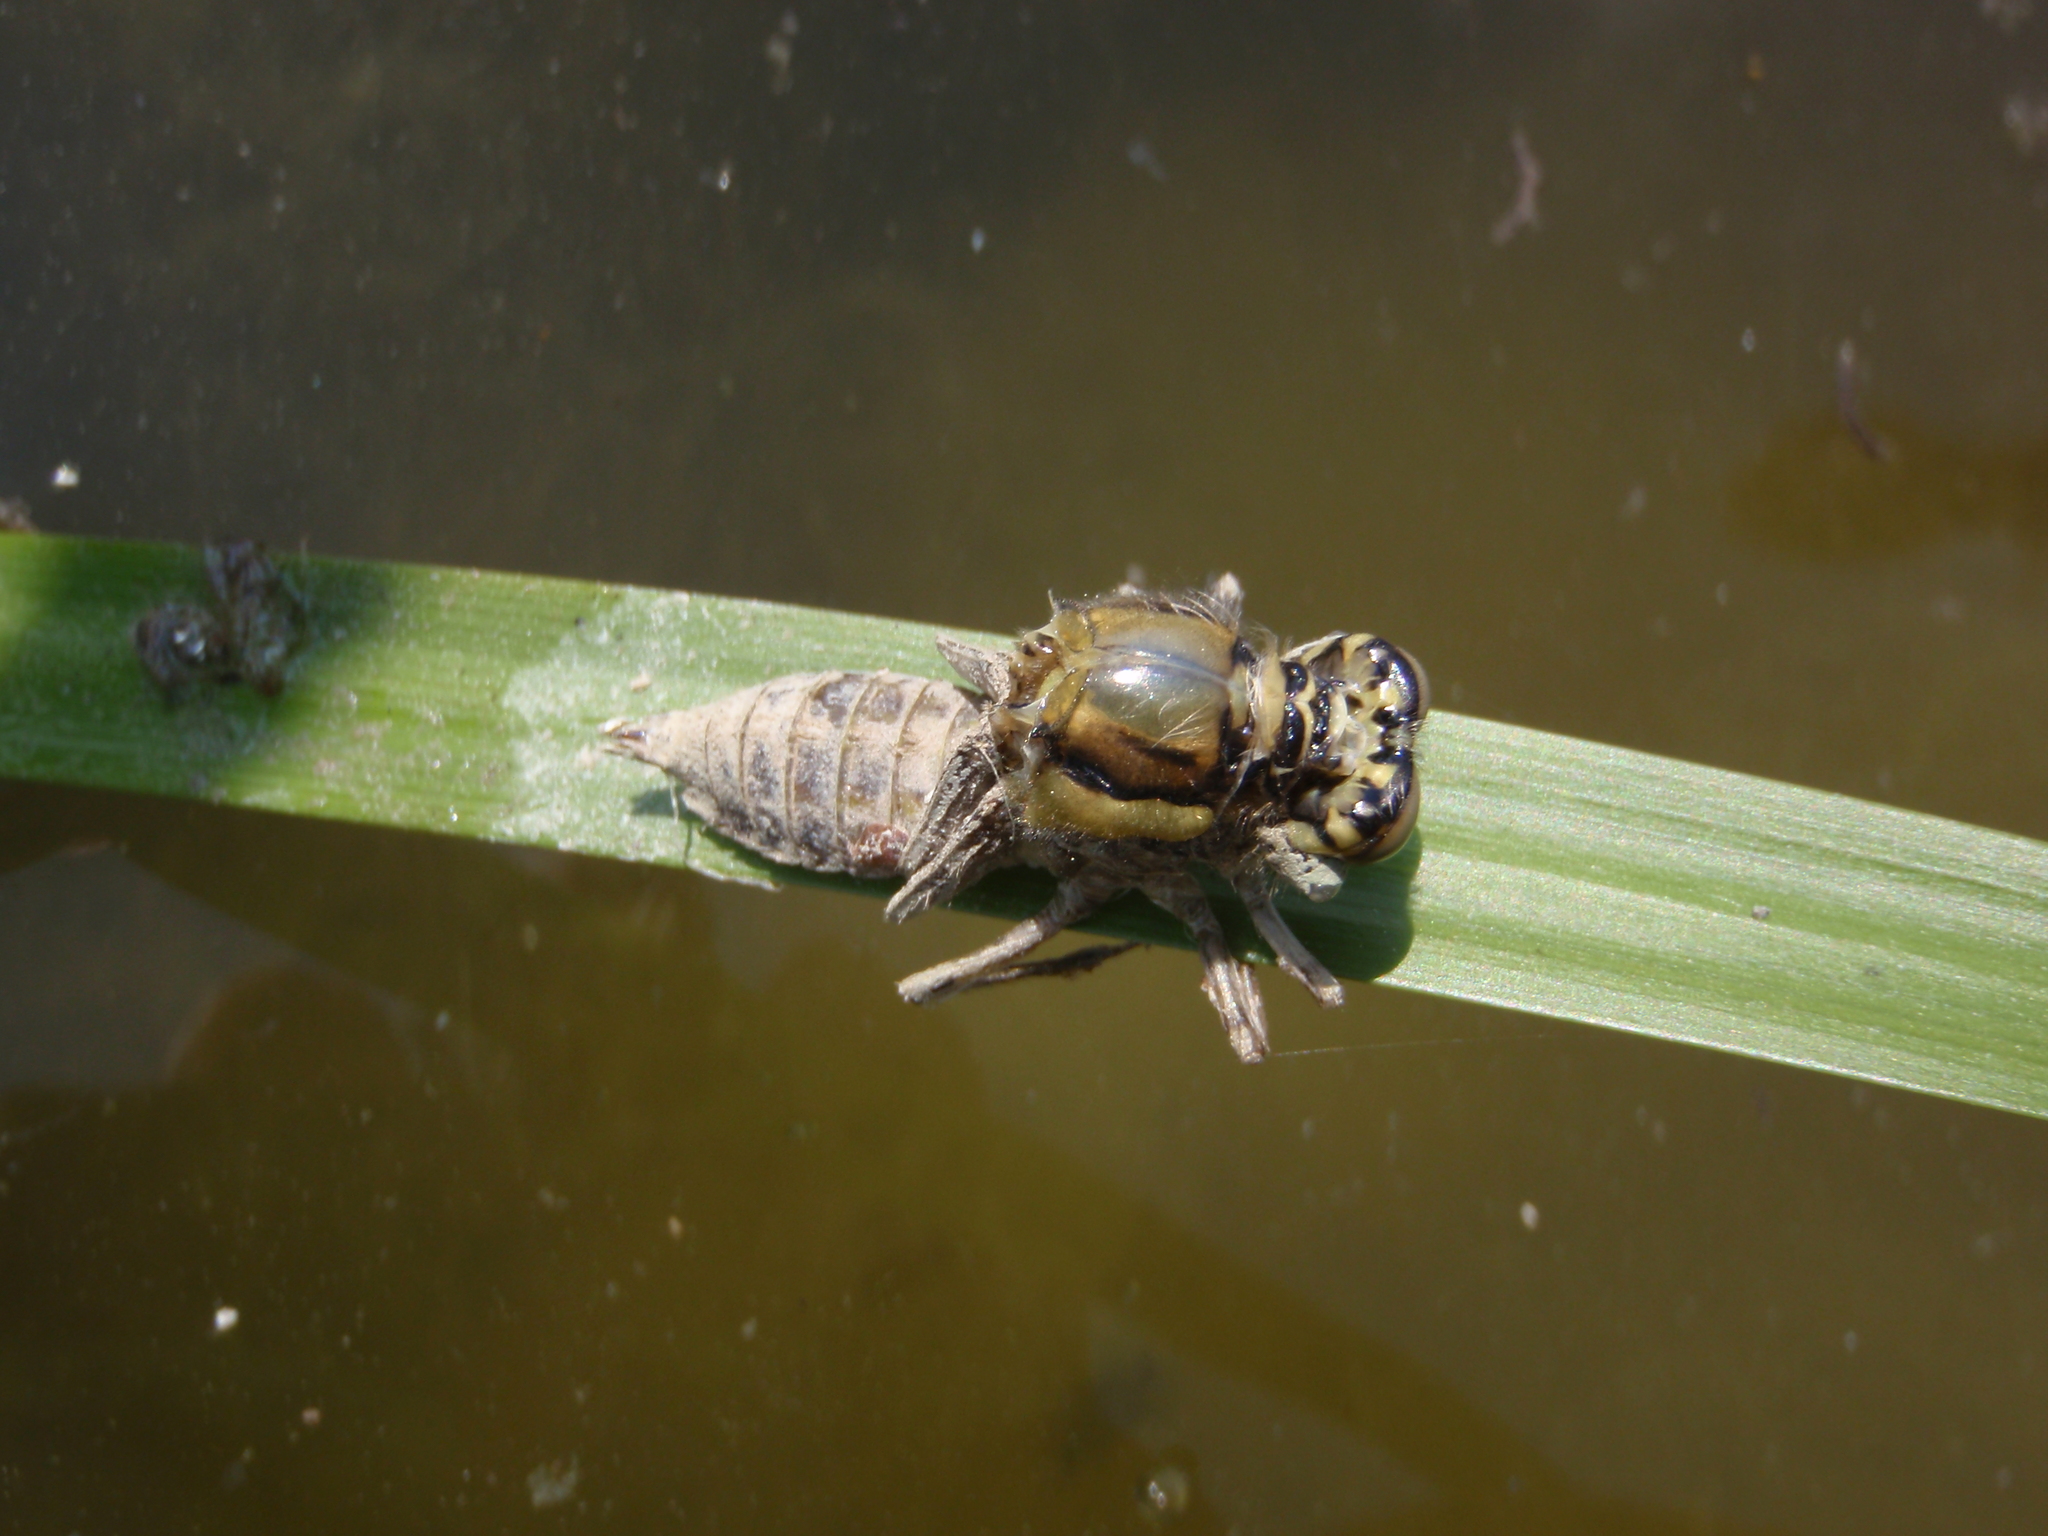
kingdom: Animalia
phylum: Arthropoda
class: Insecta
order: Odonata
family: Libellulidae
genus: Orthetrum
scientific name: Orthetrum cancellatum
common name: Black-tailed skimmer
